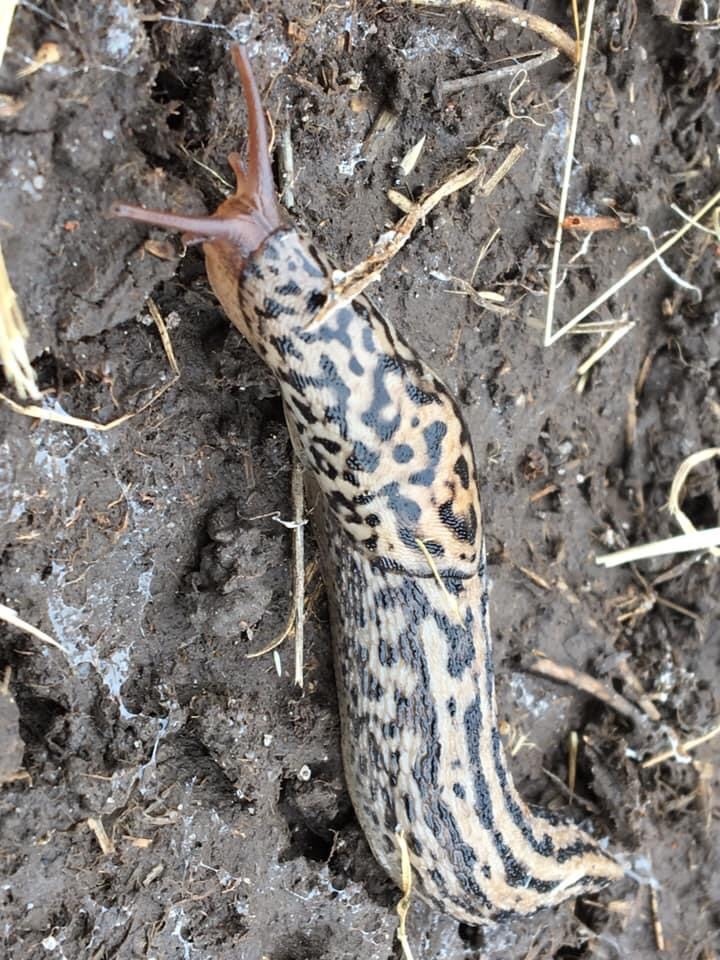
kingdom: Animalia
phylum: Mollusca
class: Gastropoda
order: Stylommatophora
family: Limacidae
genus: Limax
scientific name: Limax maximus
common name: Great grey slug
